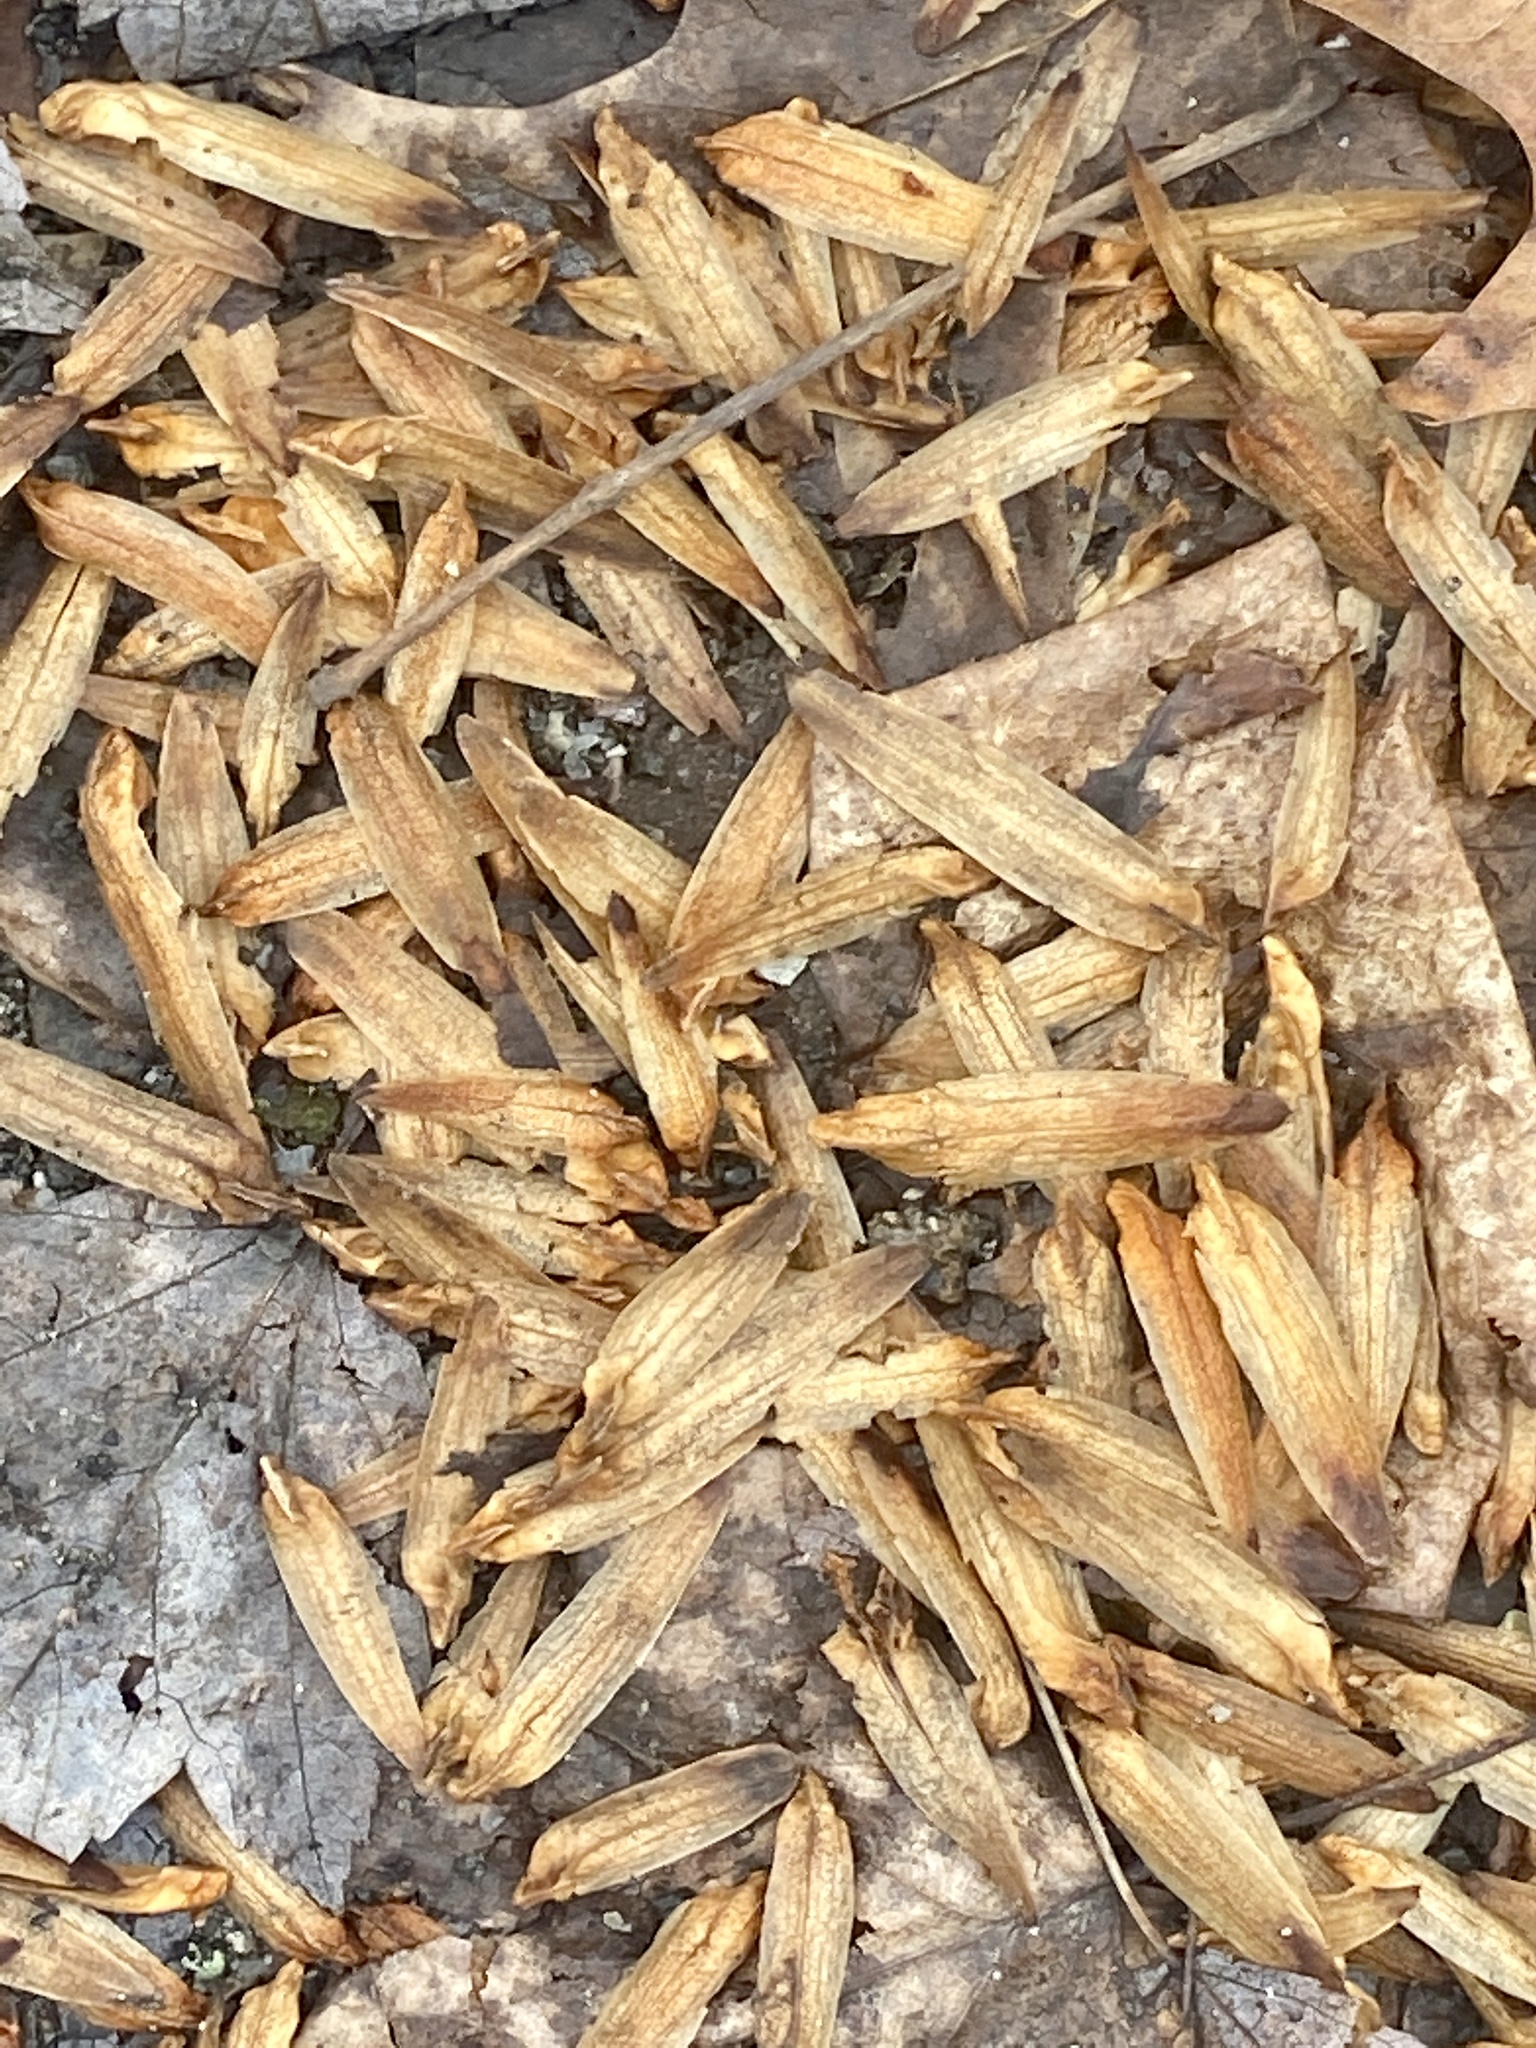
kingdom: Plantae
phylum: Tracheophyta
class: Magnoliopsida
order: Magnoliales
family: Magnoliaceae
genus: Liriodendron
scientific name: Liriodendron tulipifera
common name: Tulip tree
